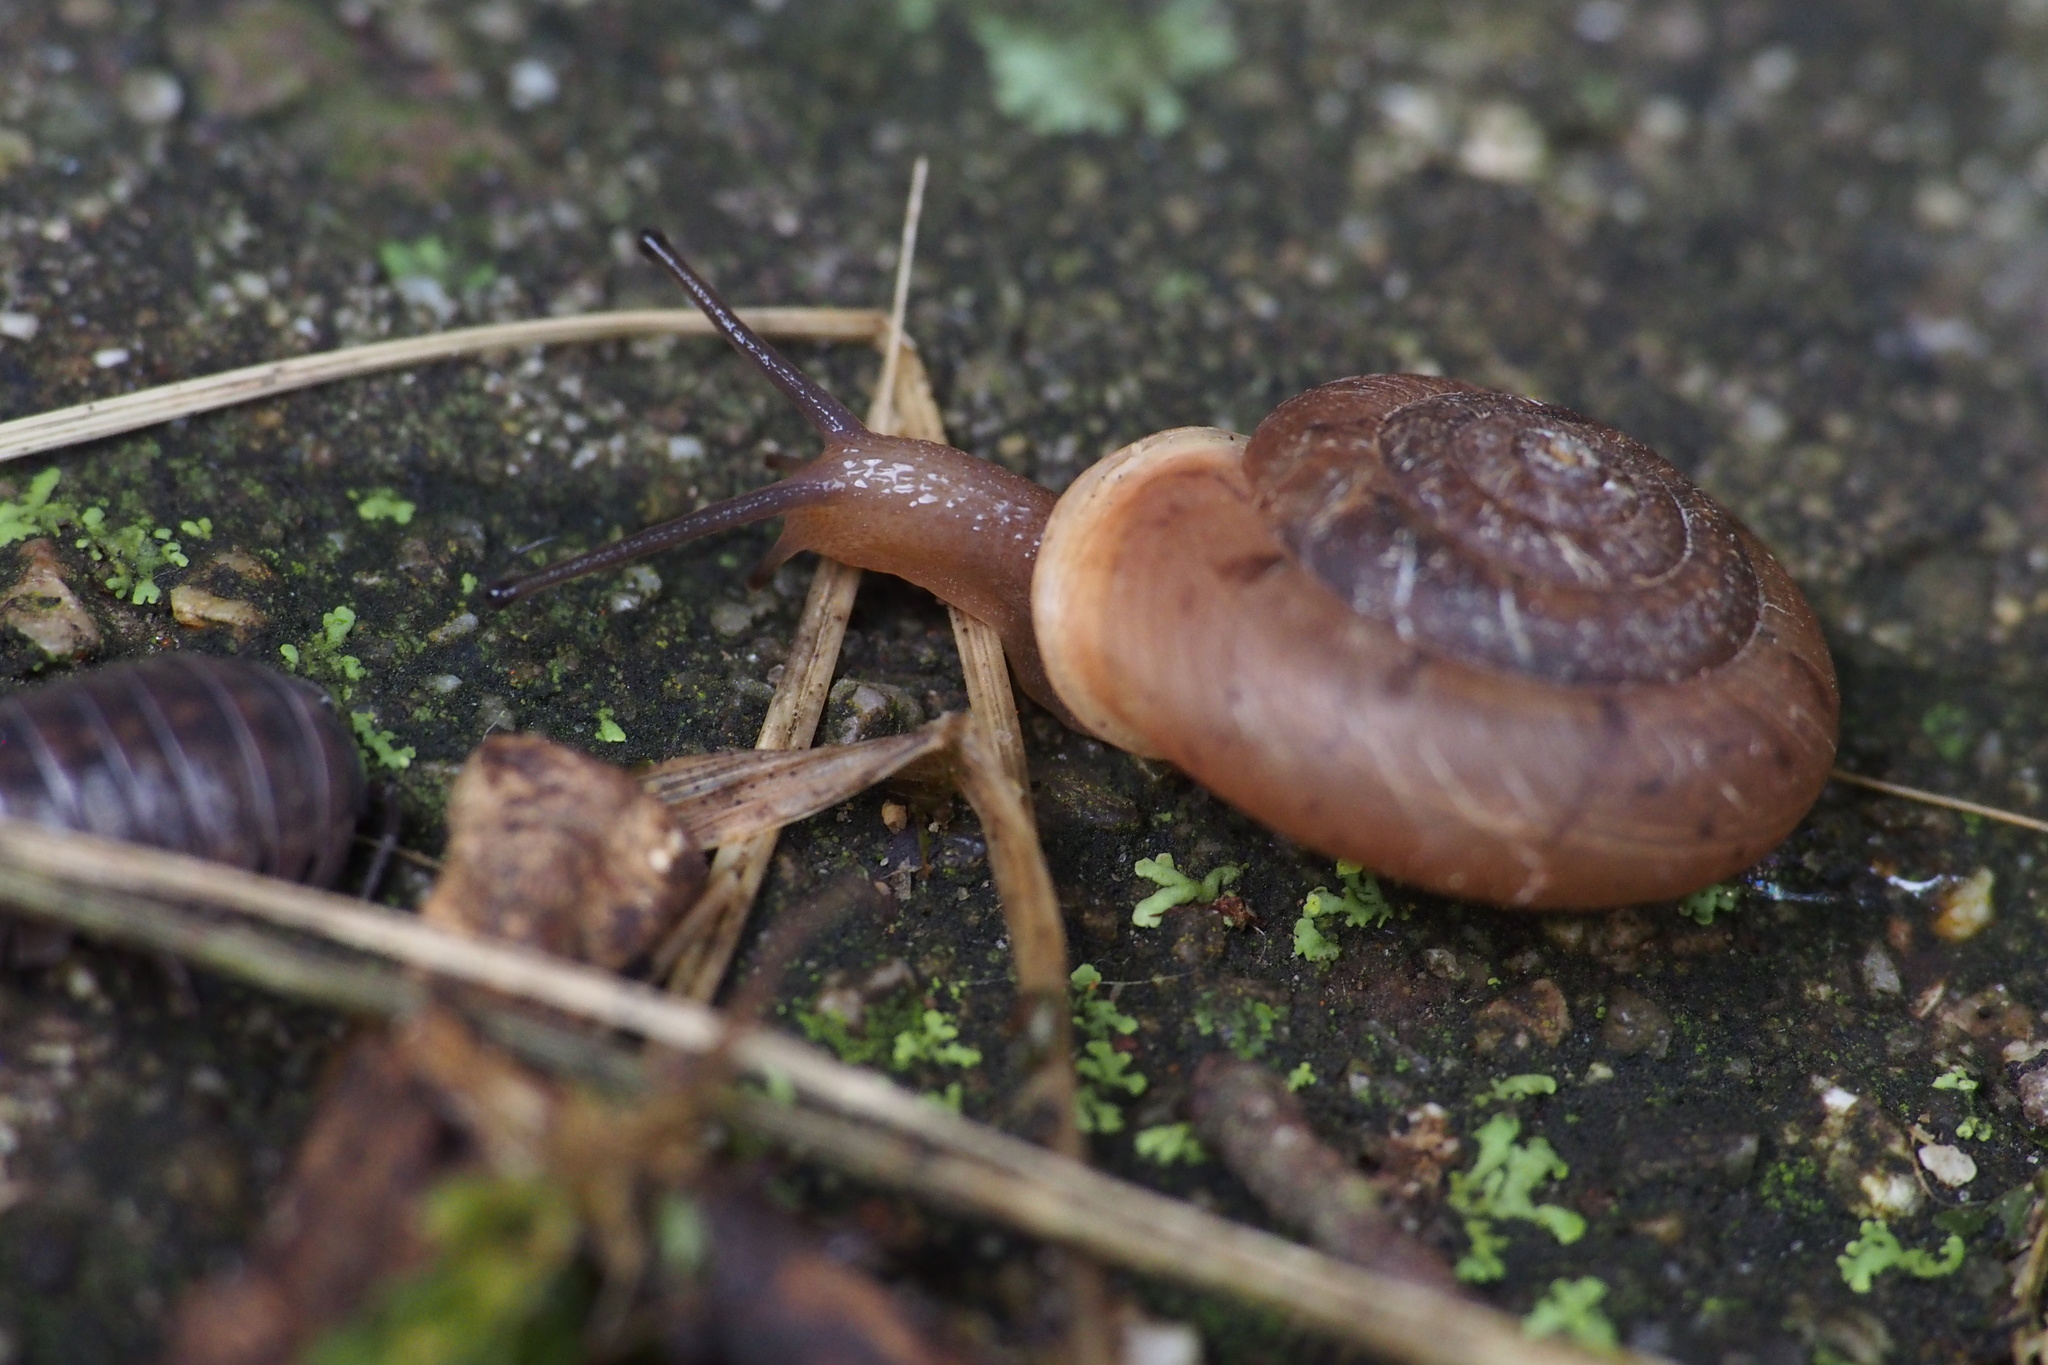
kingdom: Animalia
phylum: Mollusca
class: Gastropoda
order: Stylommatophora
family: Camaenidae
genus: Aegista
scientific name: Aegista kobensis
